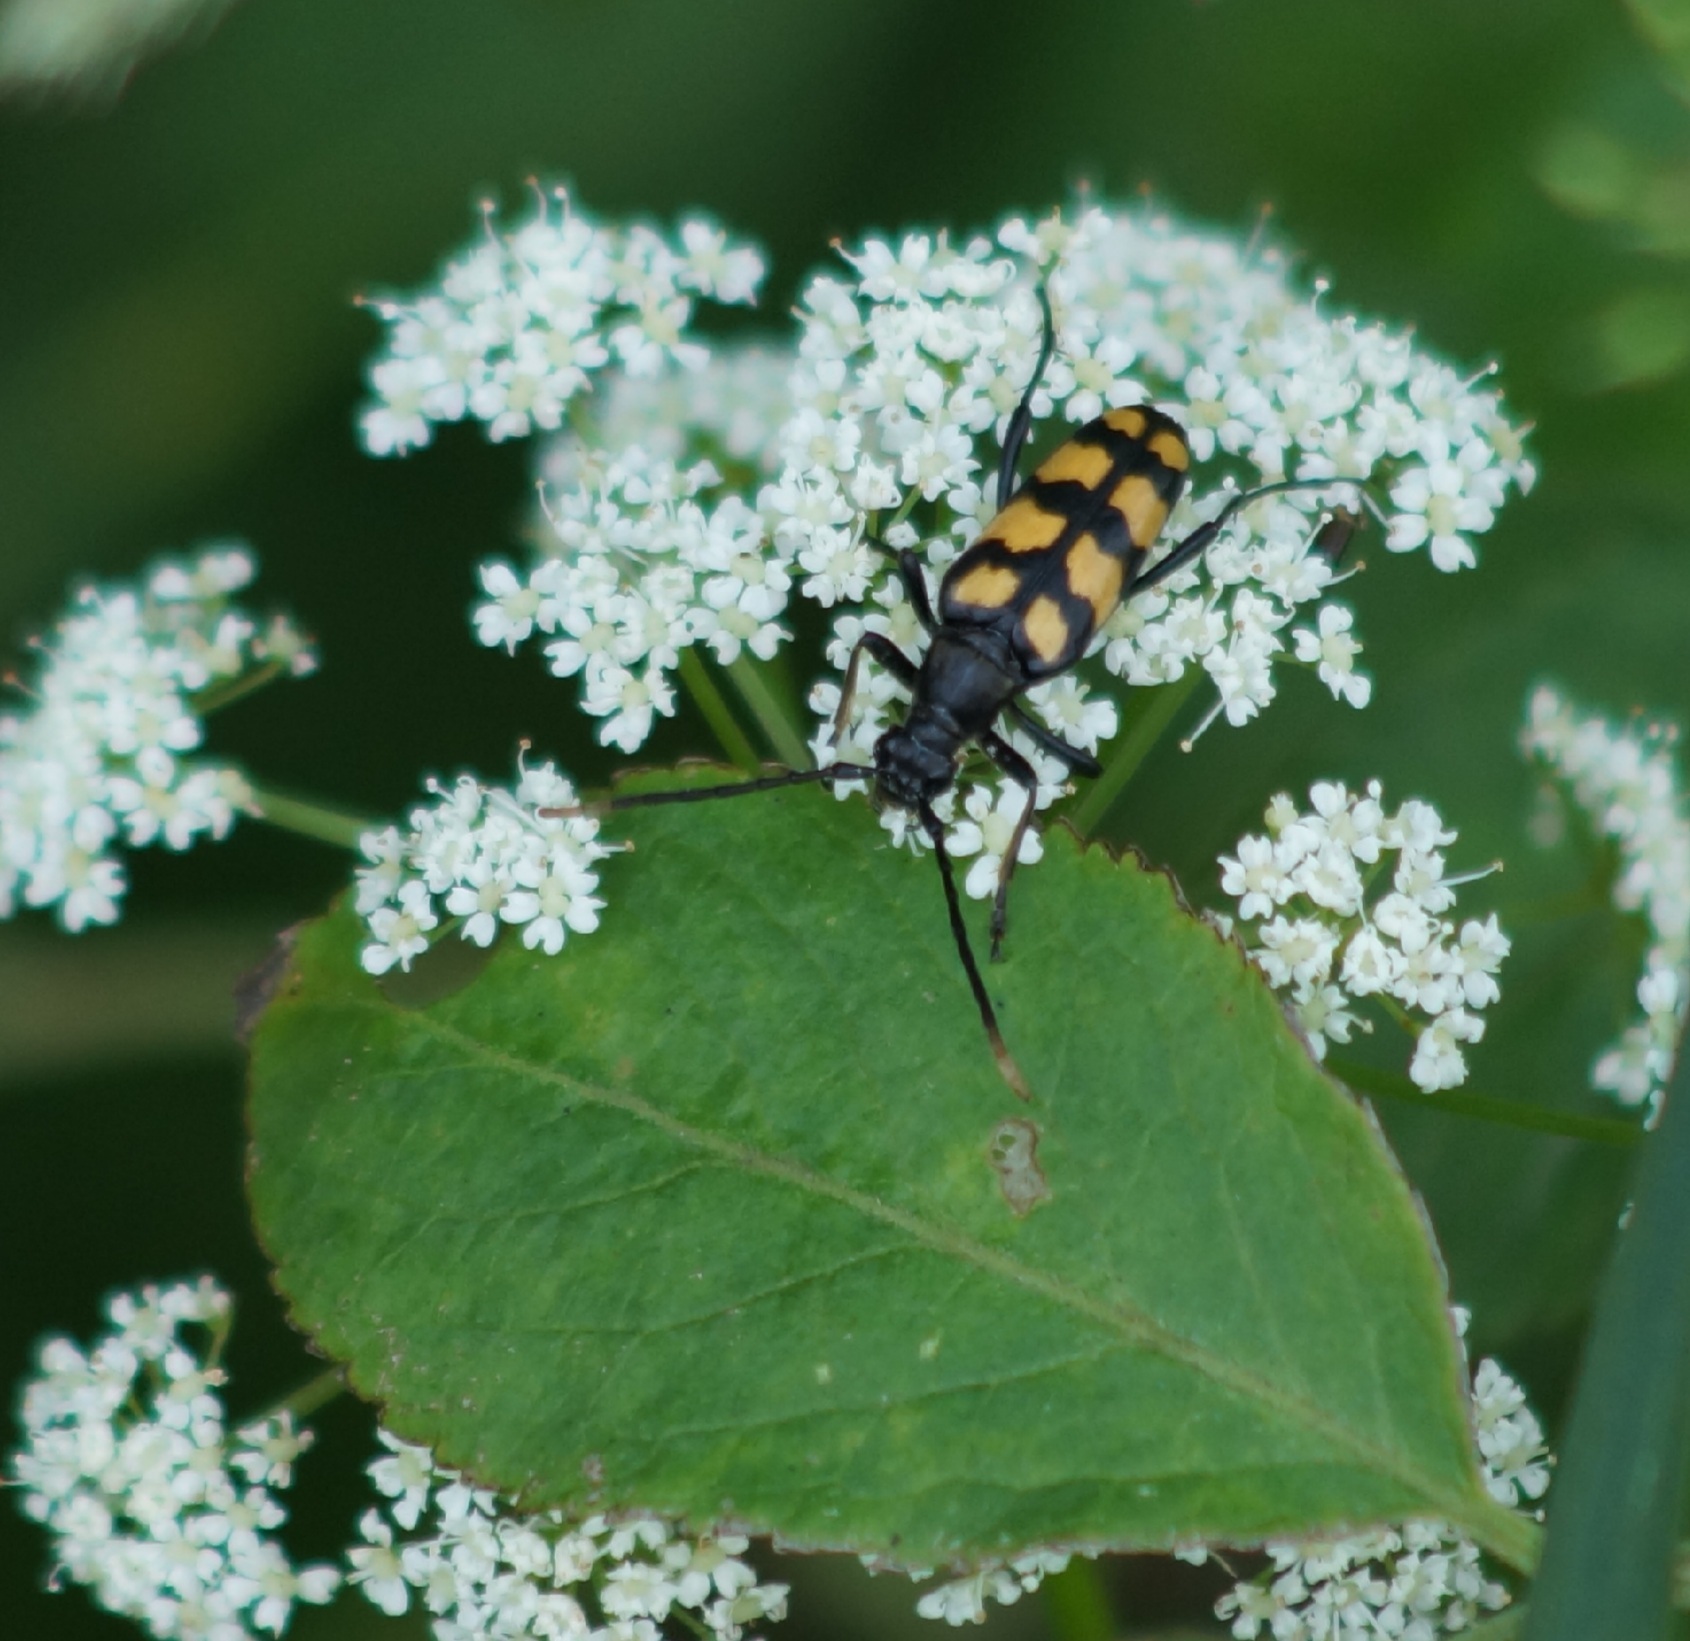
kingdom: Animalia
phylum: Arthropoda
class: Insecta
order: Coleoptera
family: Cerambycidae
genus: Leptura
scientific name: Leptura quadrifasciata
